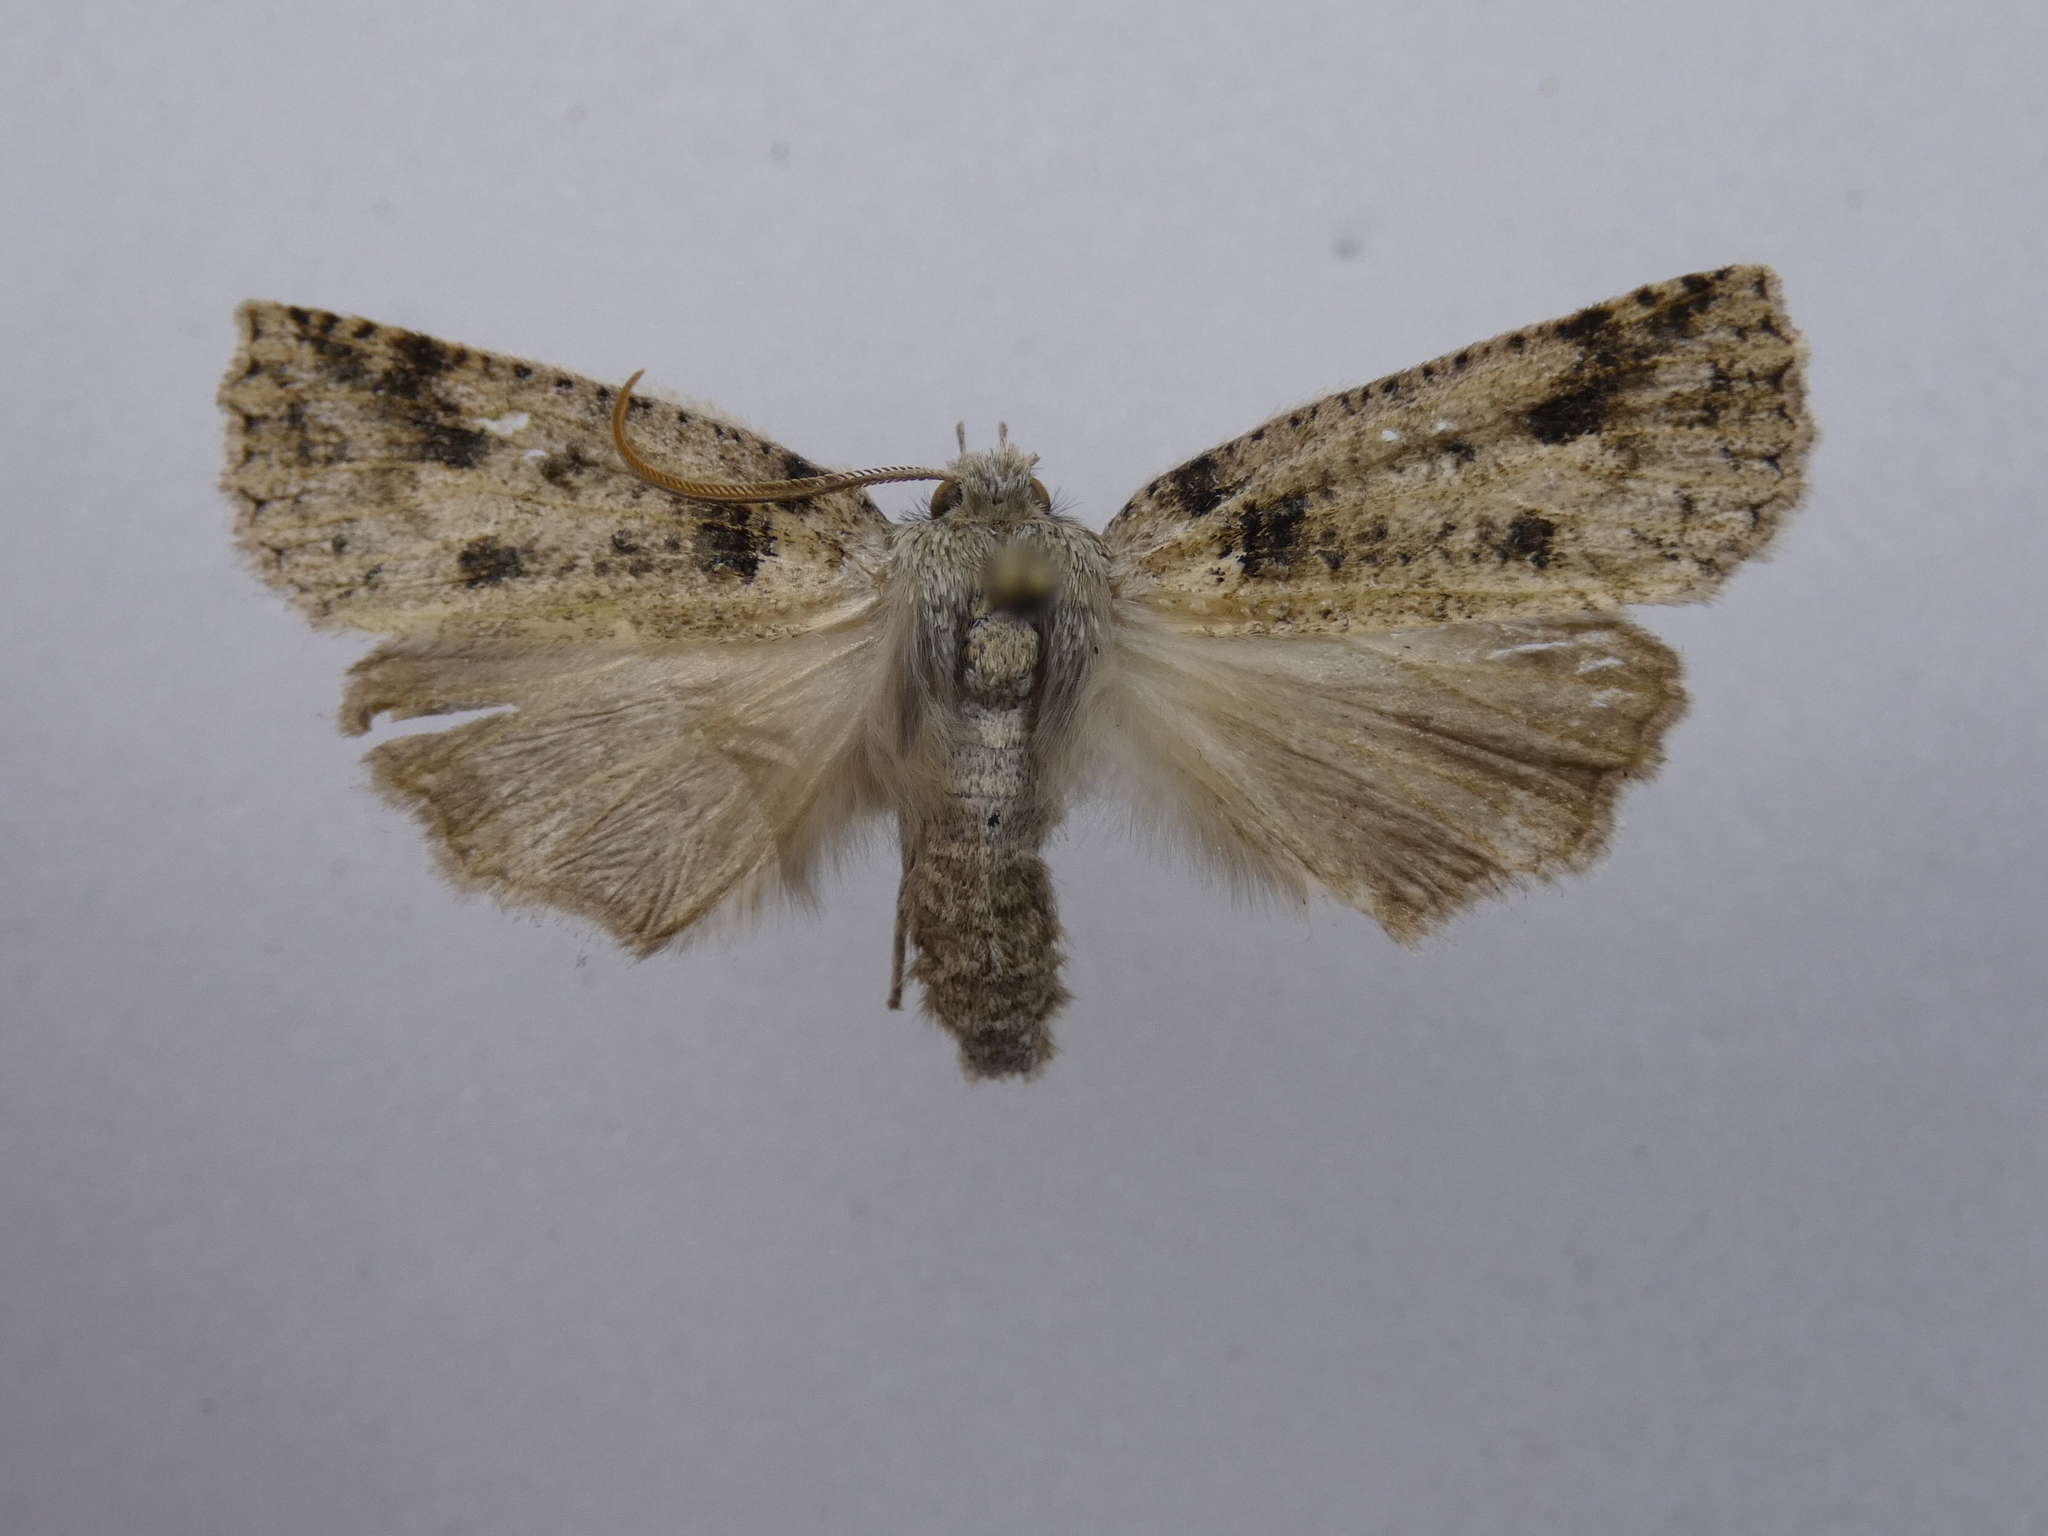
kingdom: Animalia
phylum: Arthropoda
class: Insecta
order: Lepidoptera
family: Geometridae
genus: Declana
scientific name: Declana leptomera
